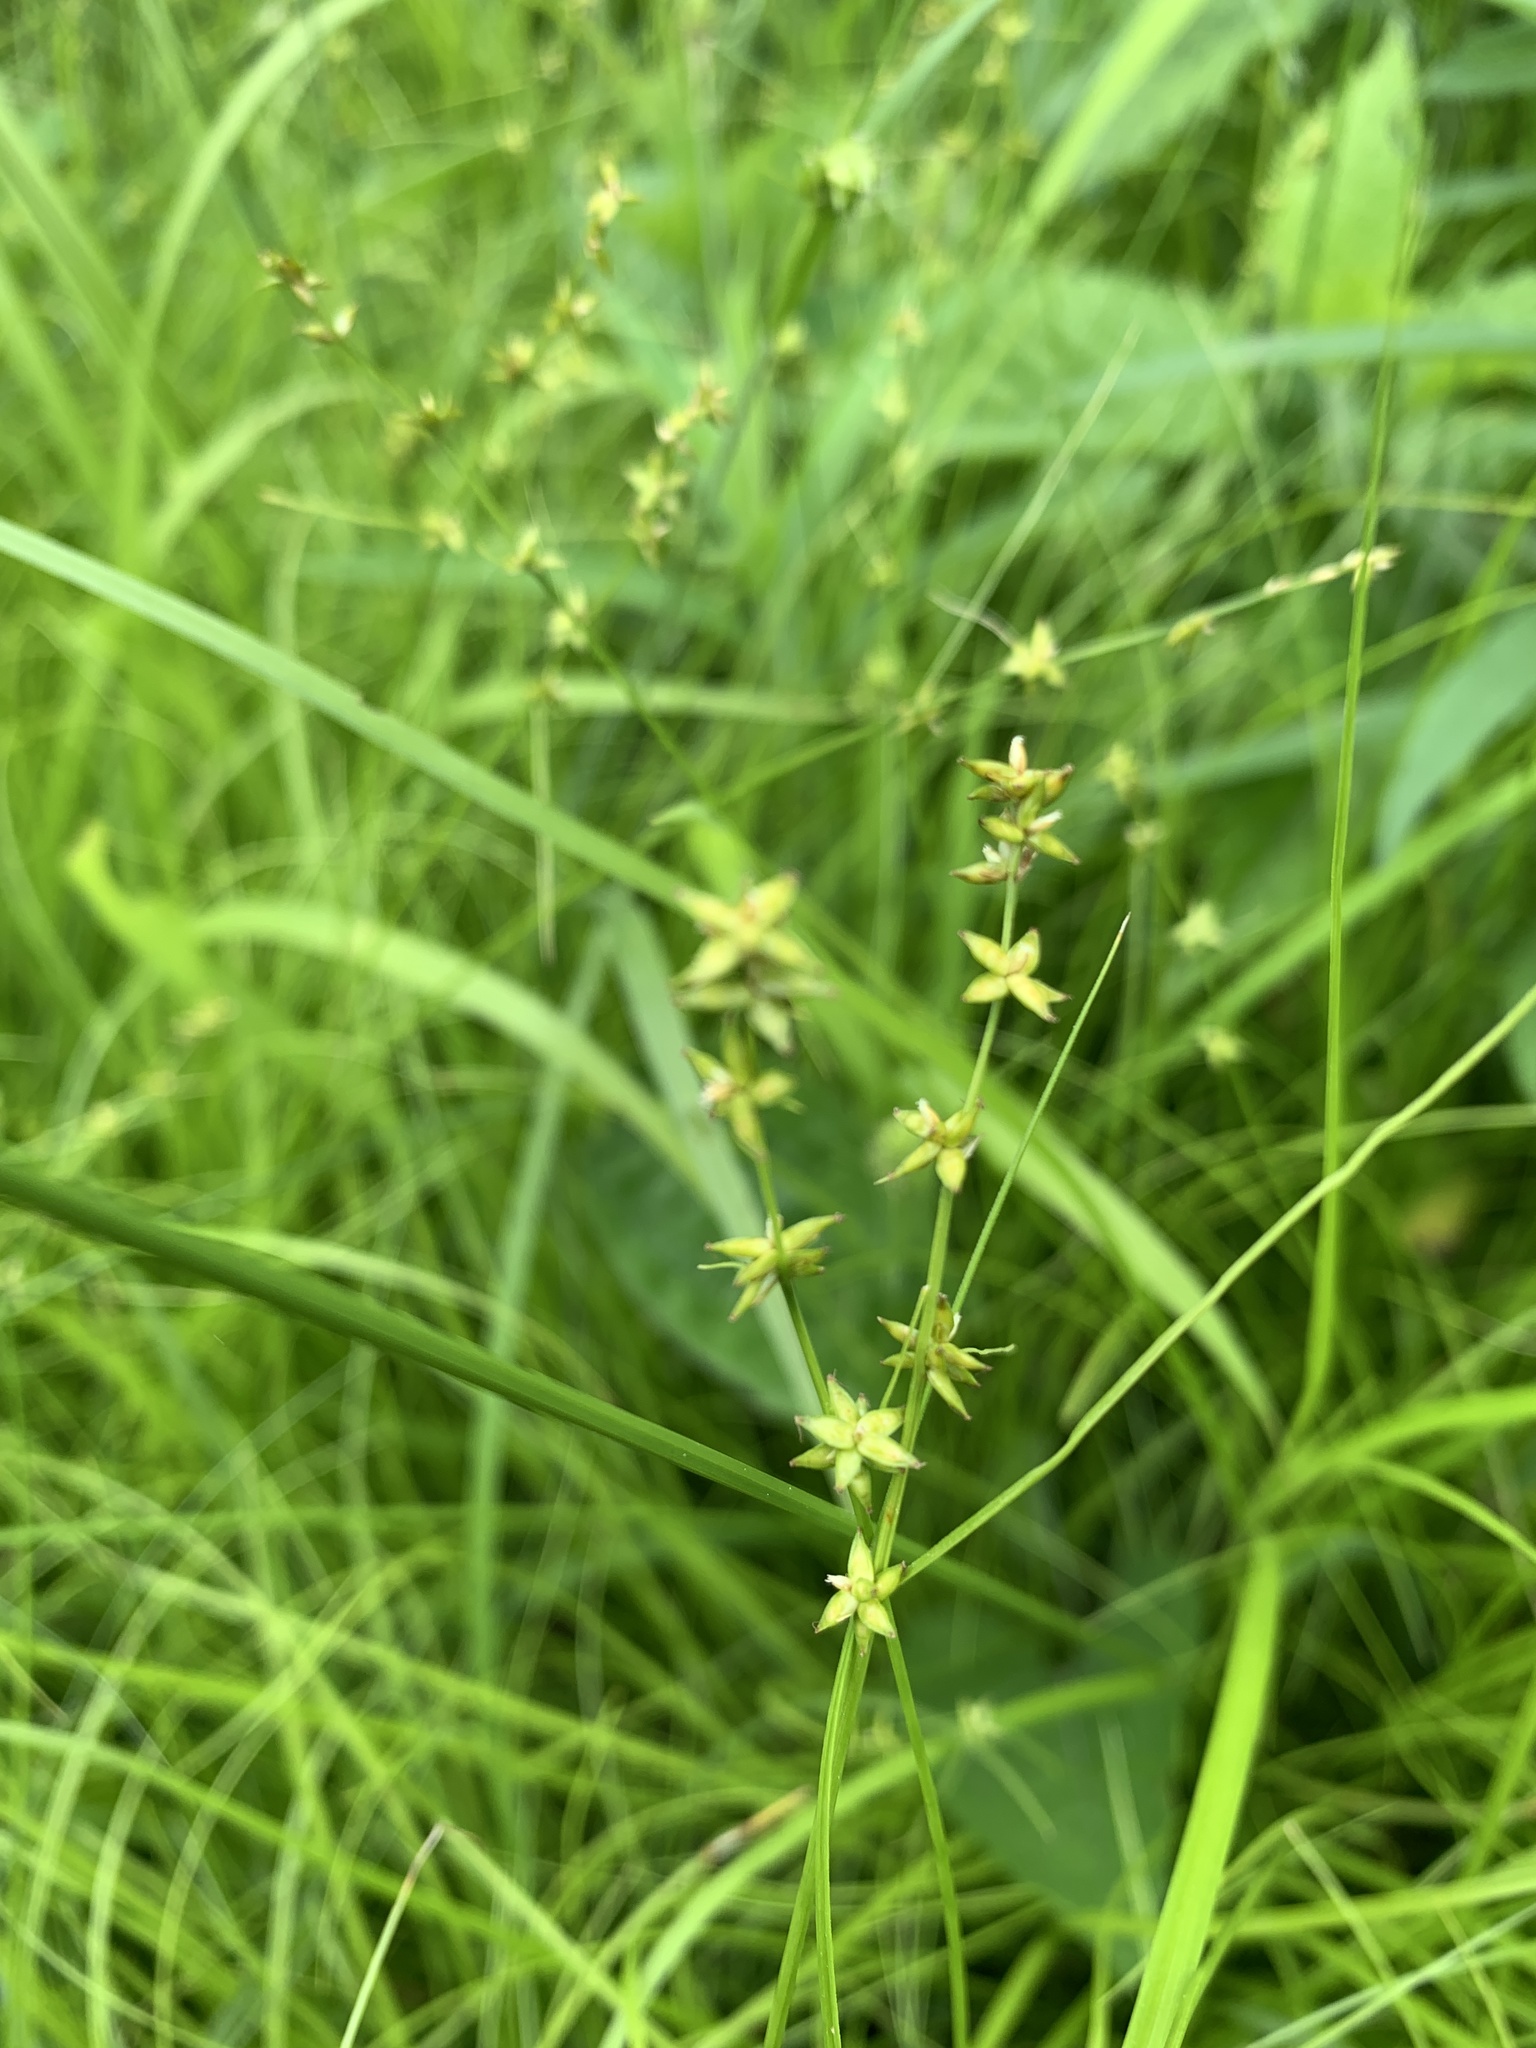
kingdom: Plantae
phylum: Tracheophyta
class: Liliopsida
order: Poales
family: Cyperaceae
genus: Carex
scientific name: Carex radiata
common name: Eastern star sedge
